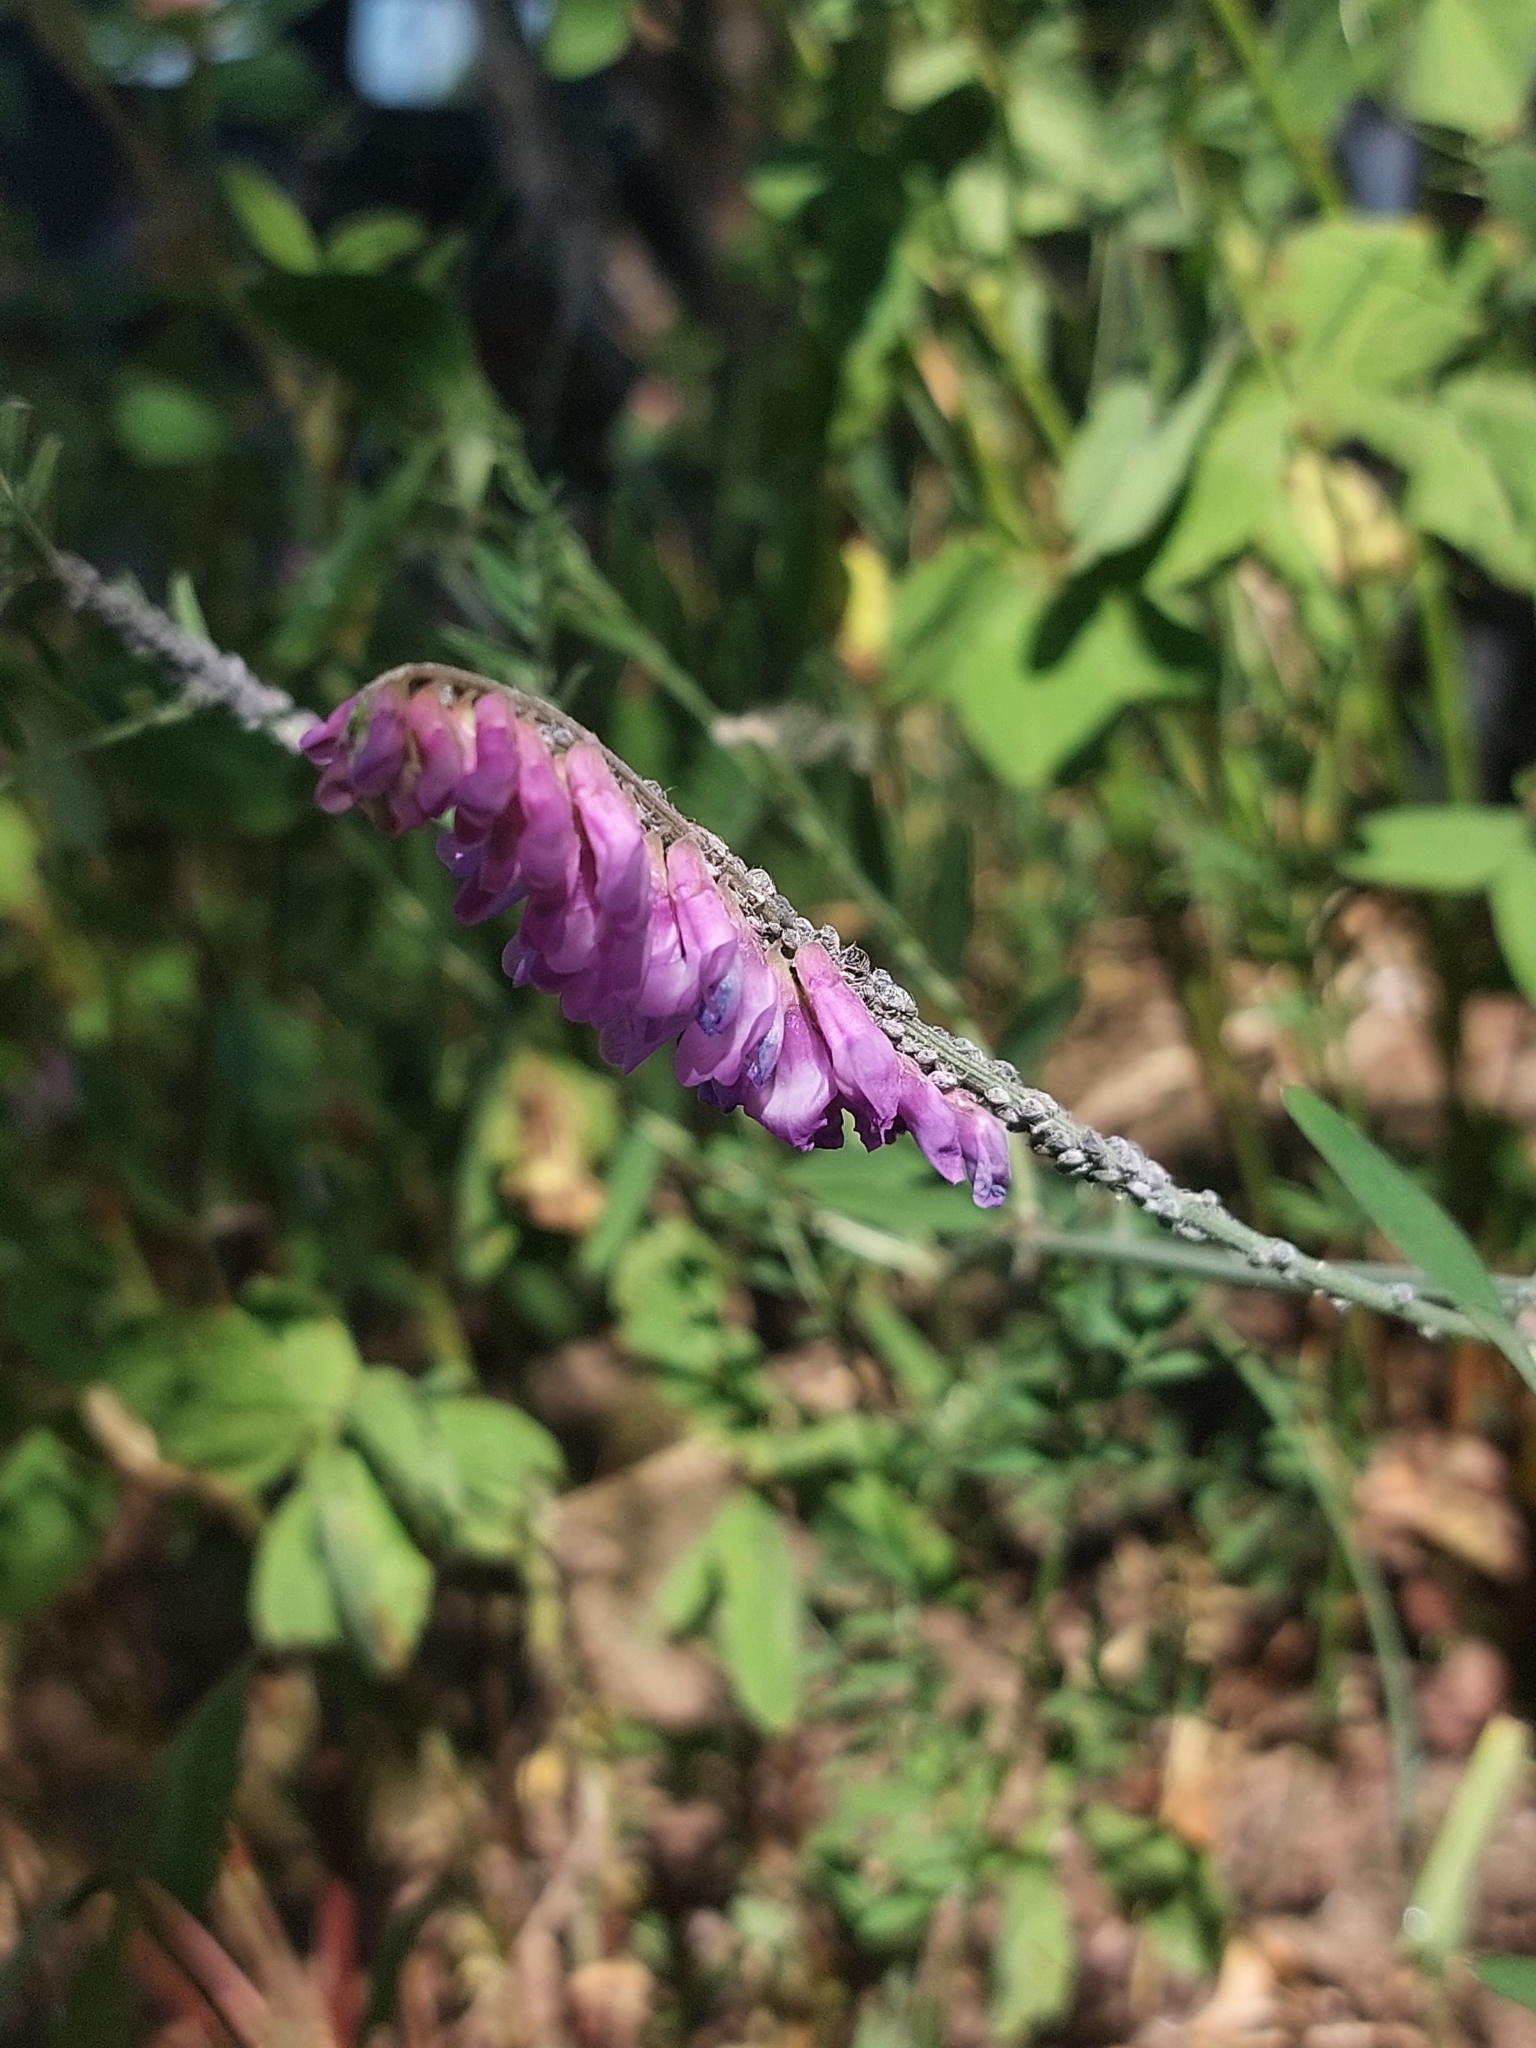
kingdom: Plantae
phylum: Tracheophyta
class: Magnoliopsida
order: Fabales
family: Fabaceae
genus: Vicia
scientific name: Vicia cracca
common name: Bird vetch
